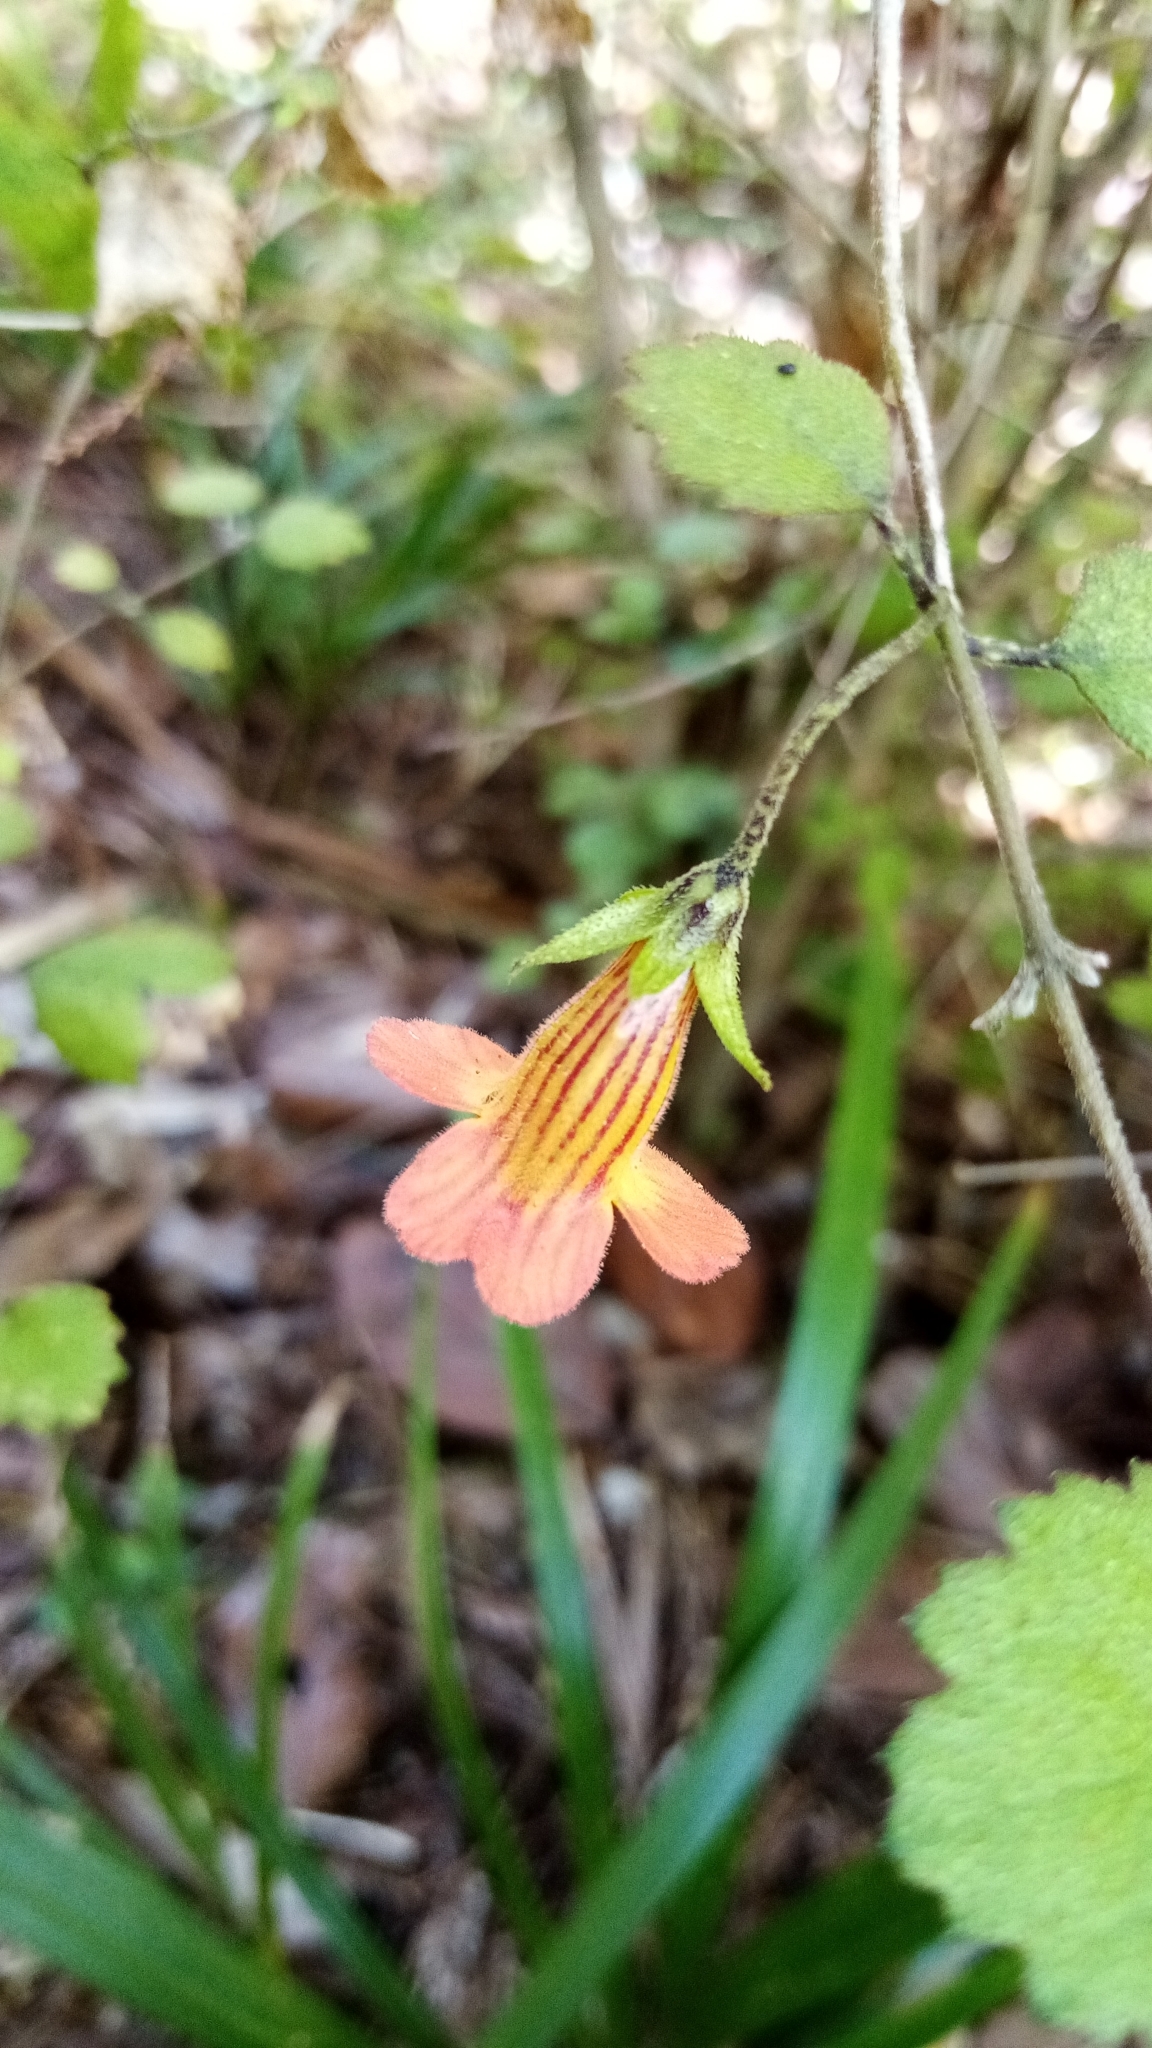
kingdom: Plantae
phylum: Tracheophyta
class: Magnoliopsida
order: Lamiales
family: Gesneriaceae
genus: Rhabdothamnus
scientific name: Rhabdothamnus solandri
